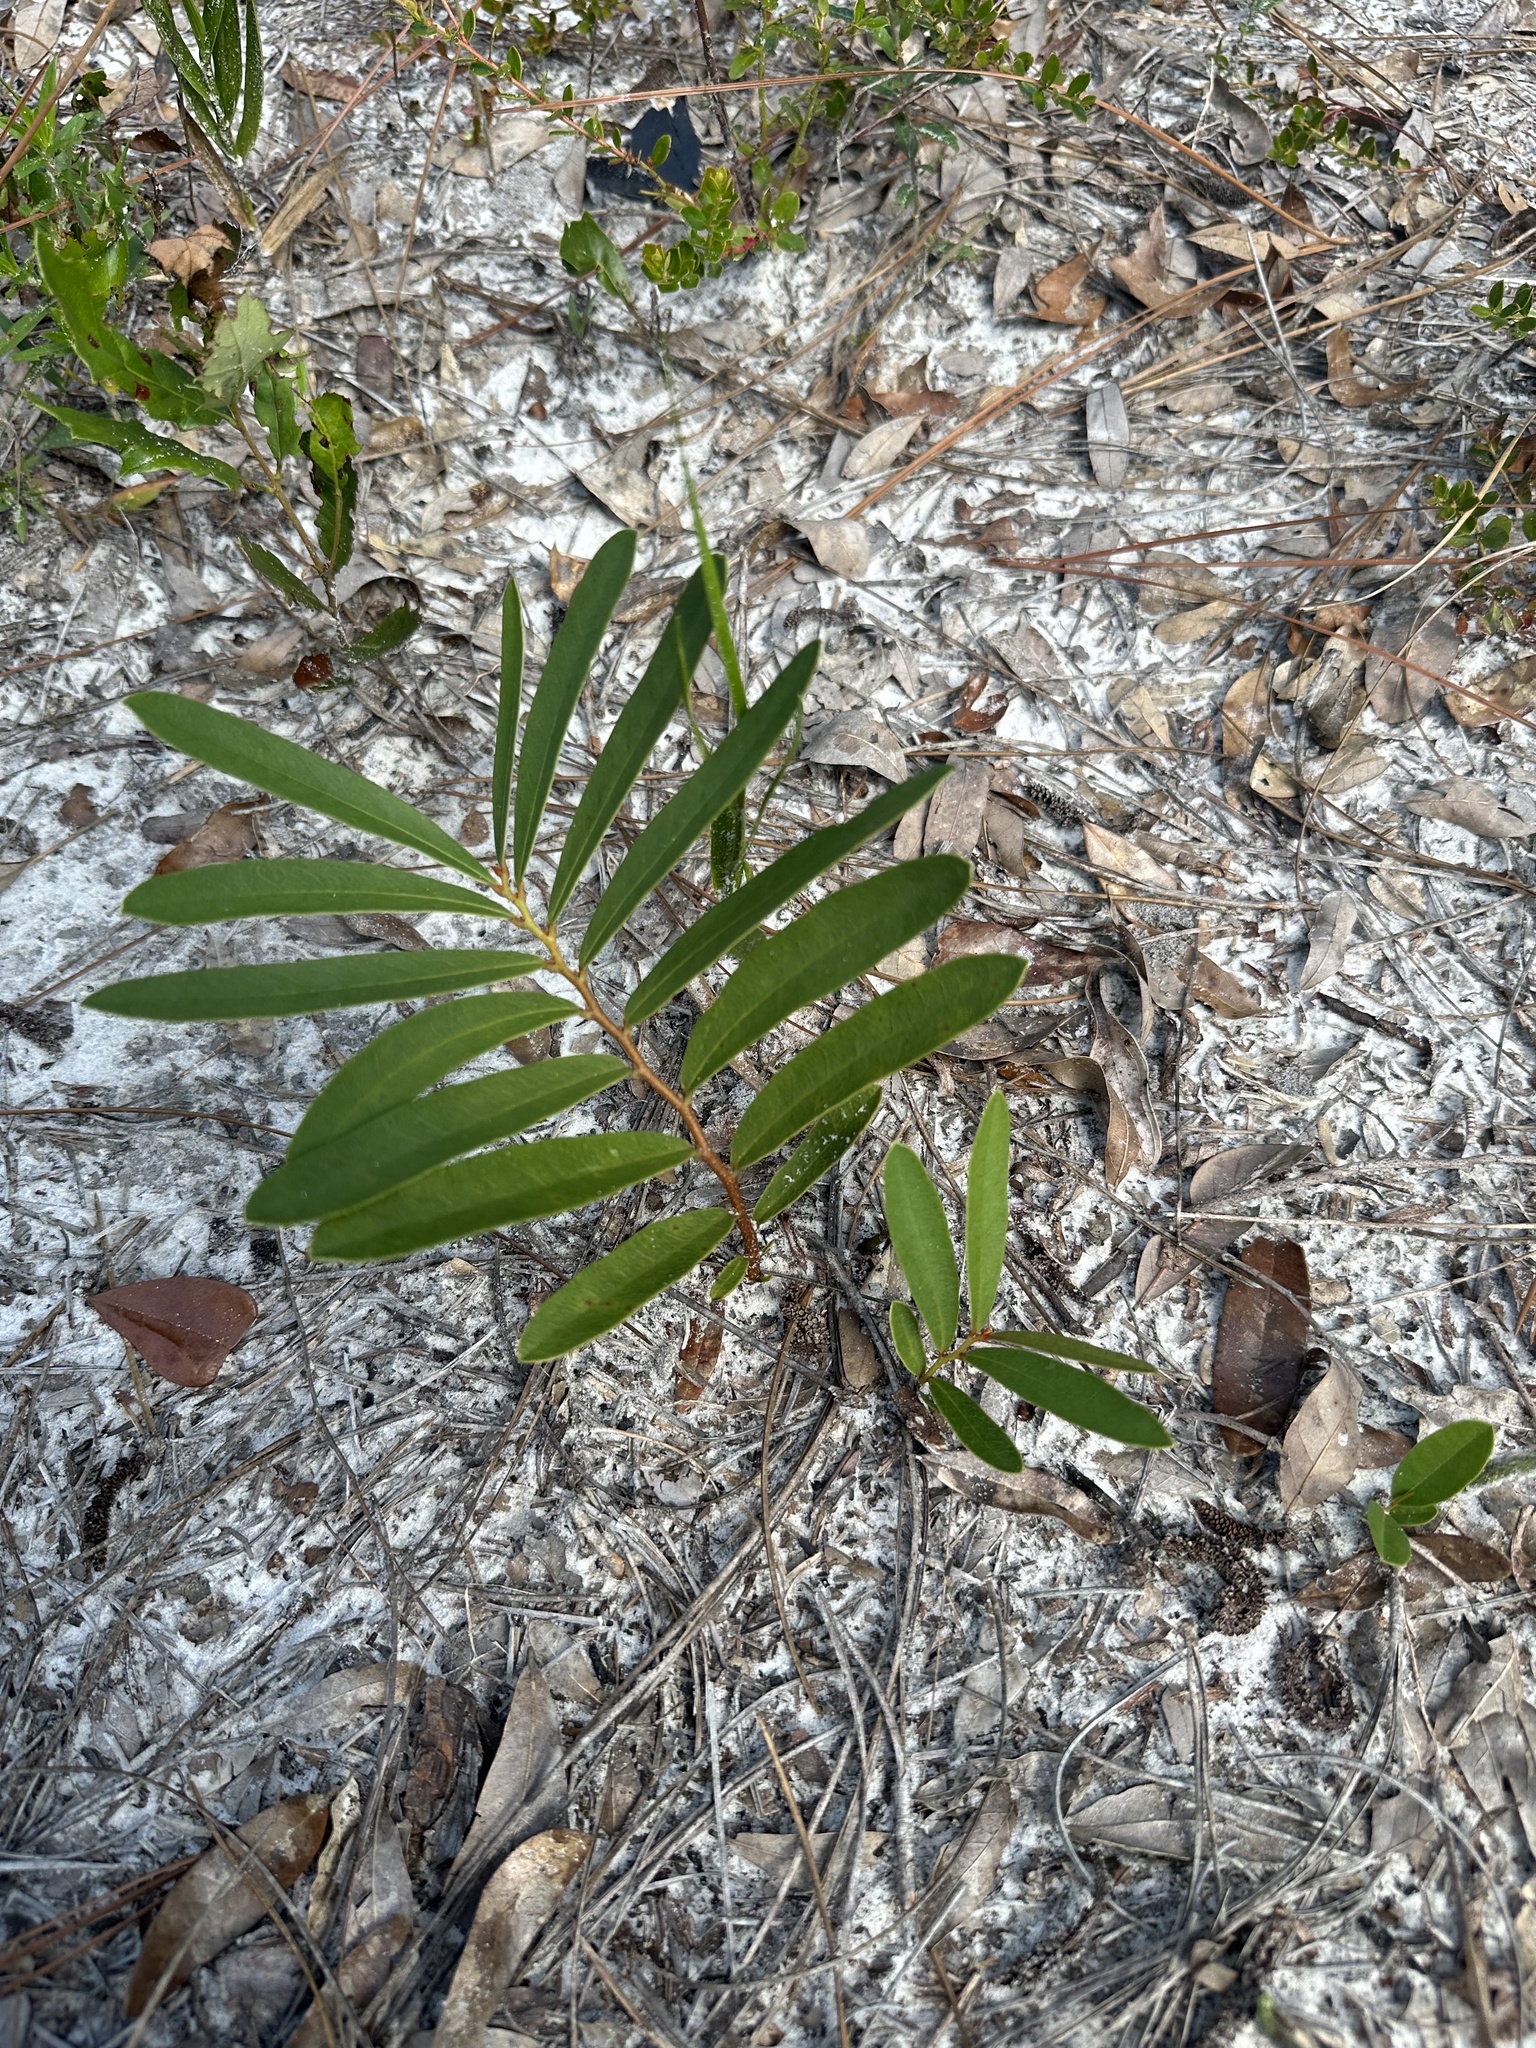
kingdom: Plantae
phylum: Tracheophyta
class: Magnoliopsida
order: Magnoliales
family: Annonaceae
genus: Asimina
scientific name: Asimina pygmaea
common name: Dwarf pawpaw
